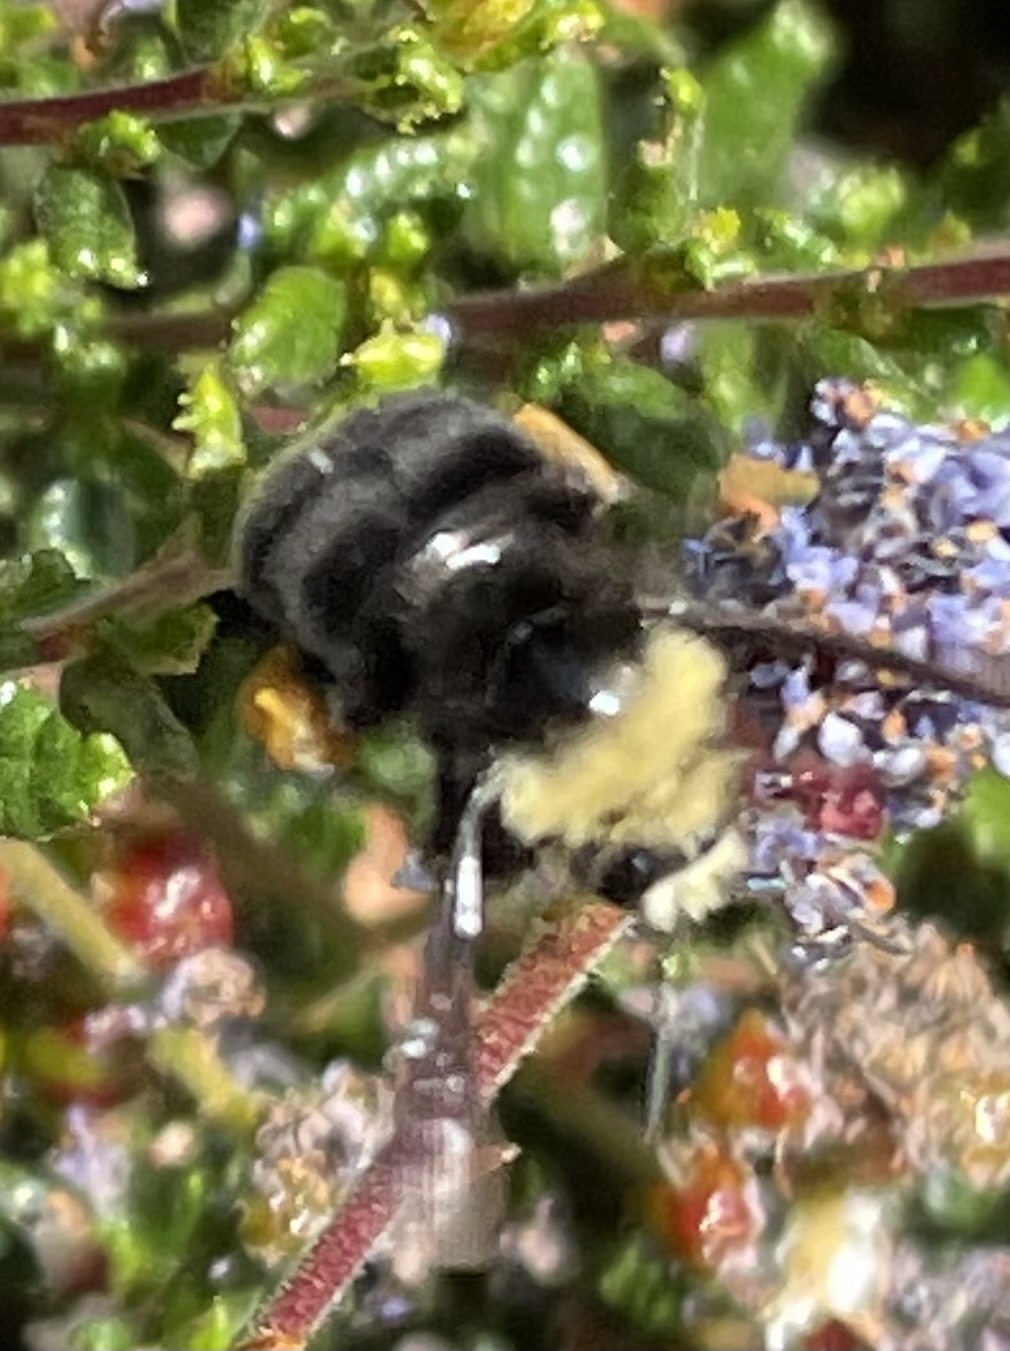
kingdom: Animalia
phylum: Arthropoda
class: Insecta
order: Hymenoptera
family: Apidae
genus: Bombus
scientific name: Bombus vosnesenskii
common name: Vosnesensky bumble bee
